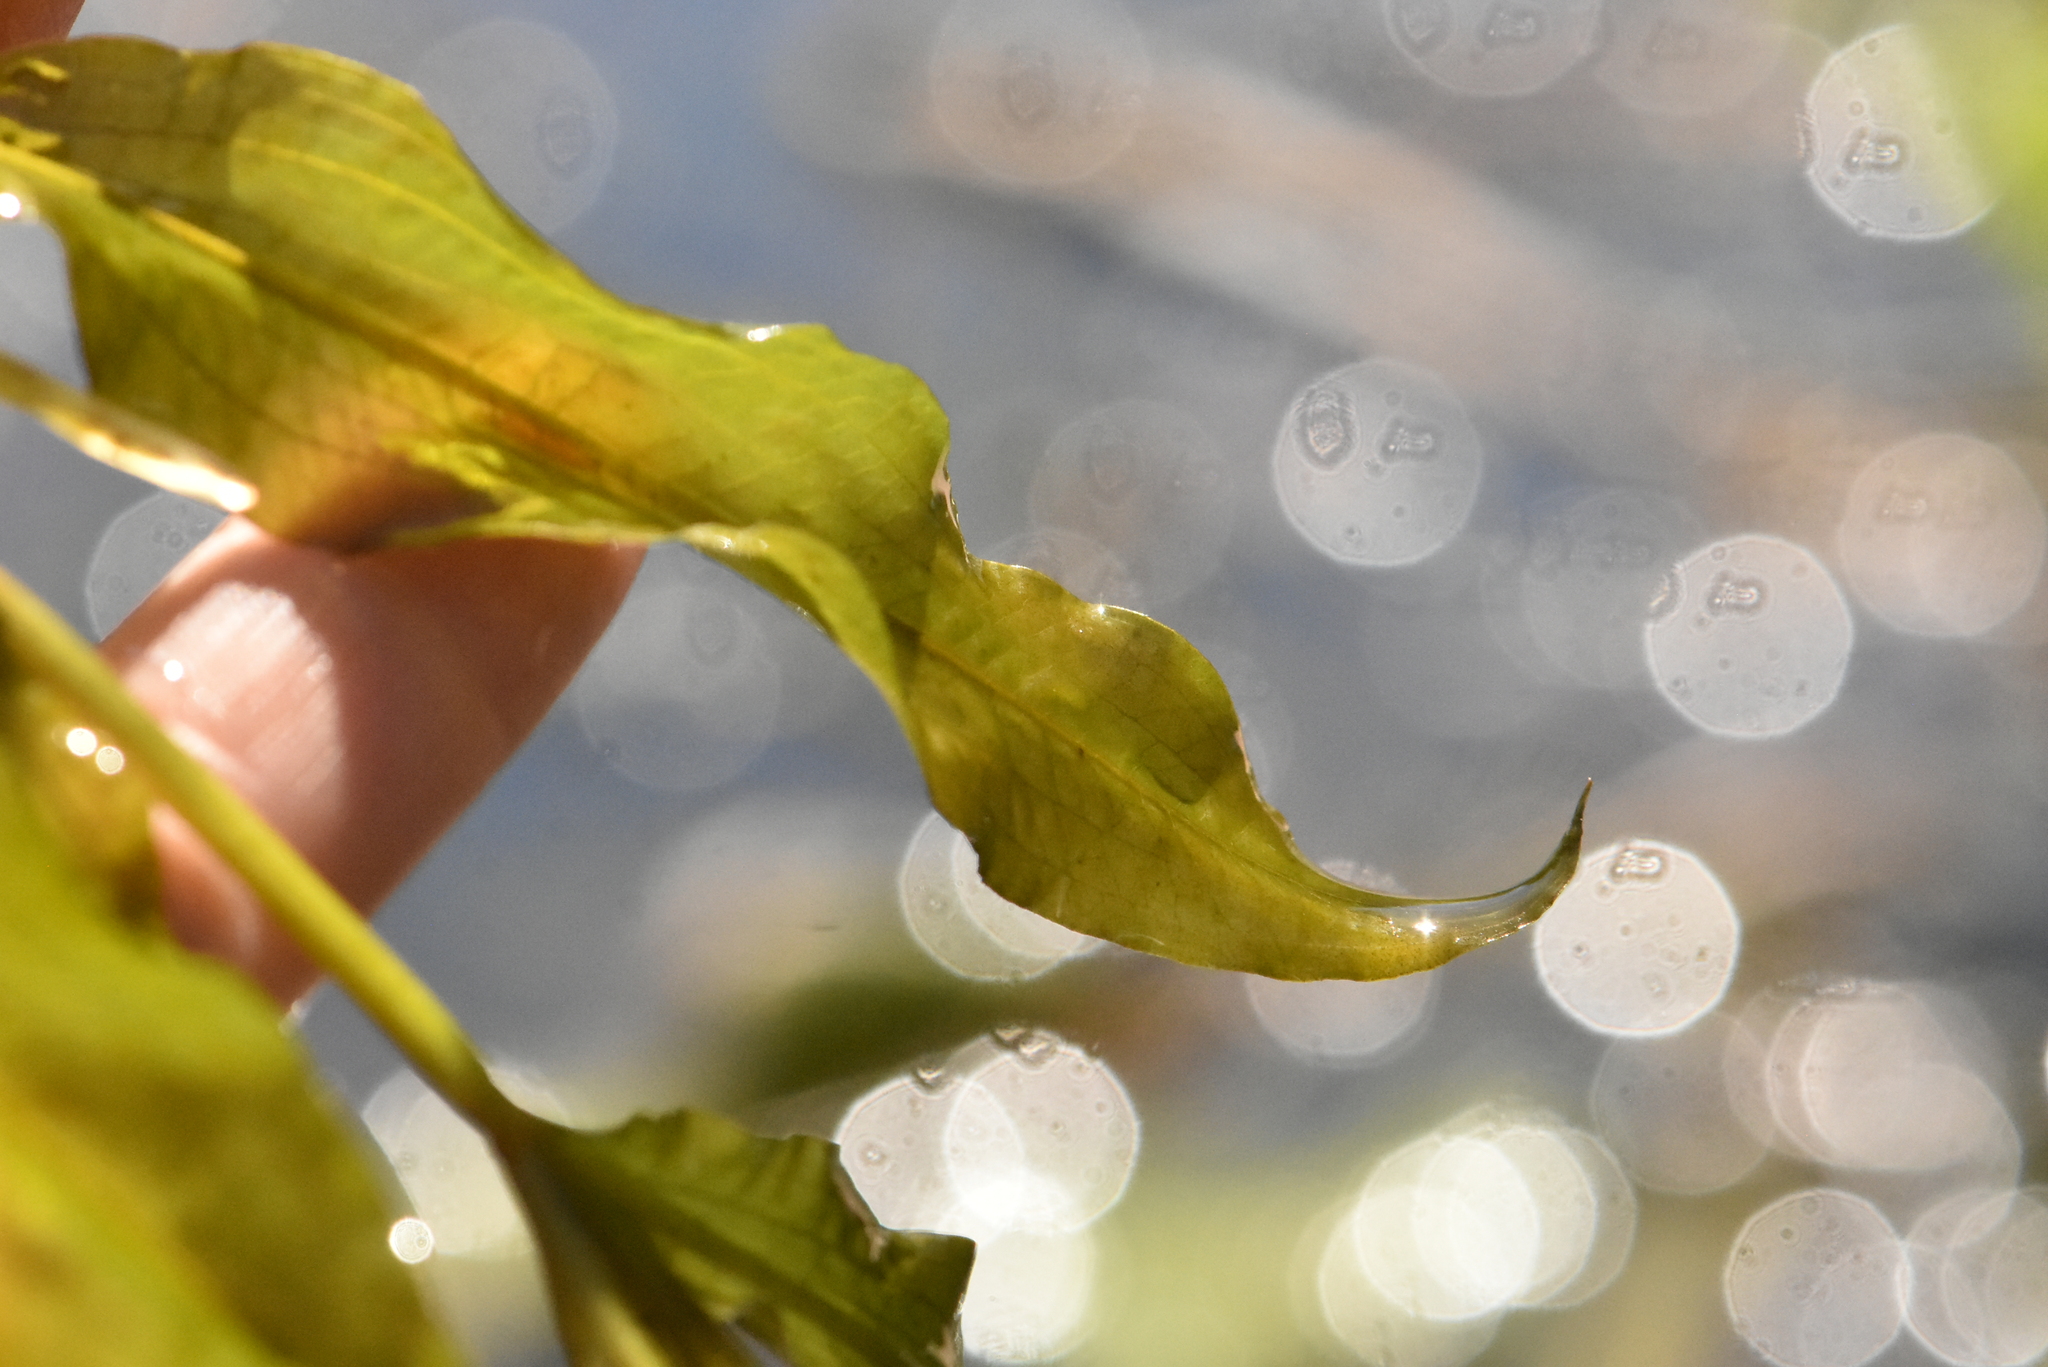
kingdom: Plantae
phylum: Tracheophyta
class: Liliopsida
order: Alismatales
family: Potamogetonaceae
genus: Potamogeton
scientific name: Potamogeton lucens
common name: Shining pondweed
